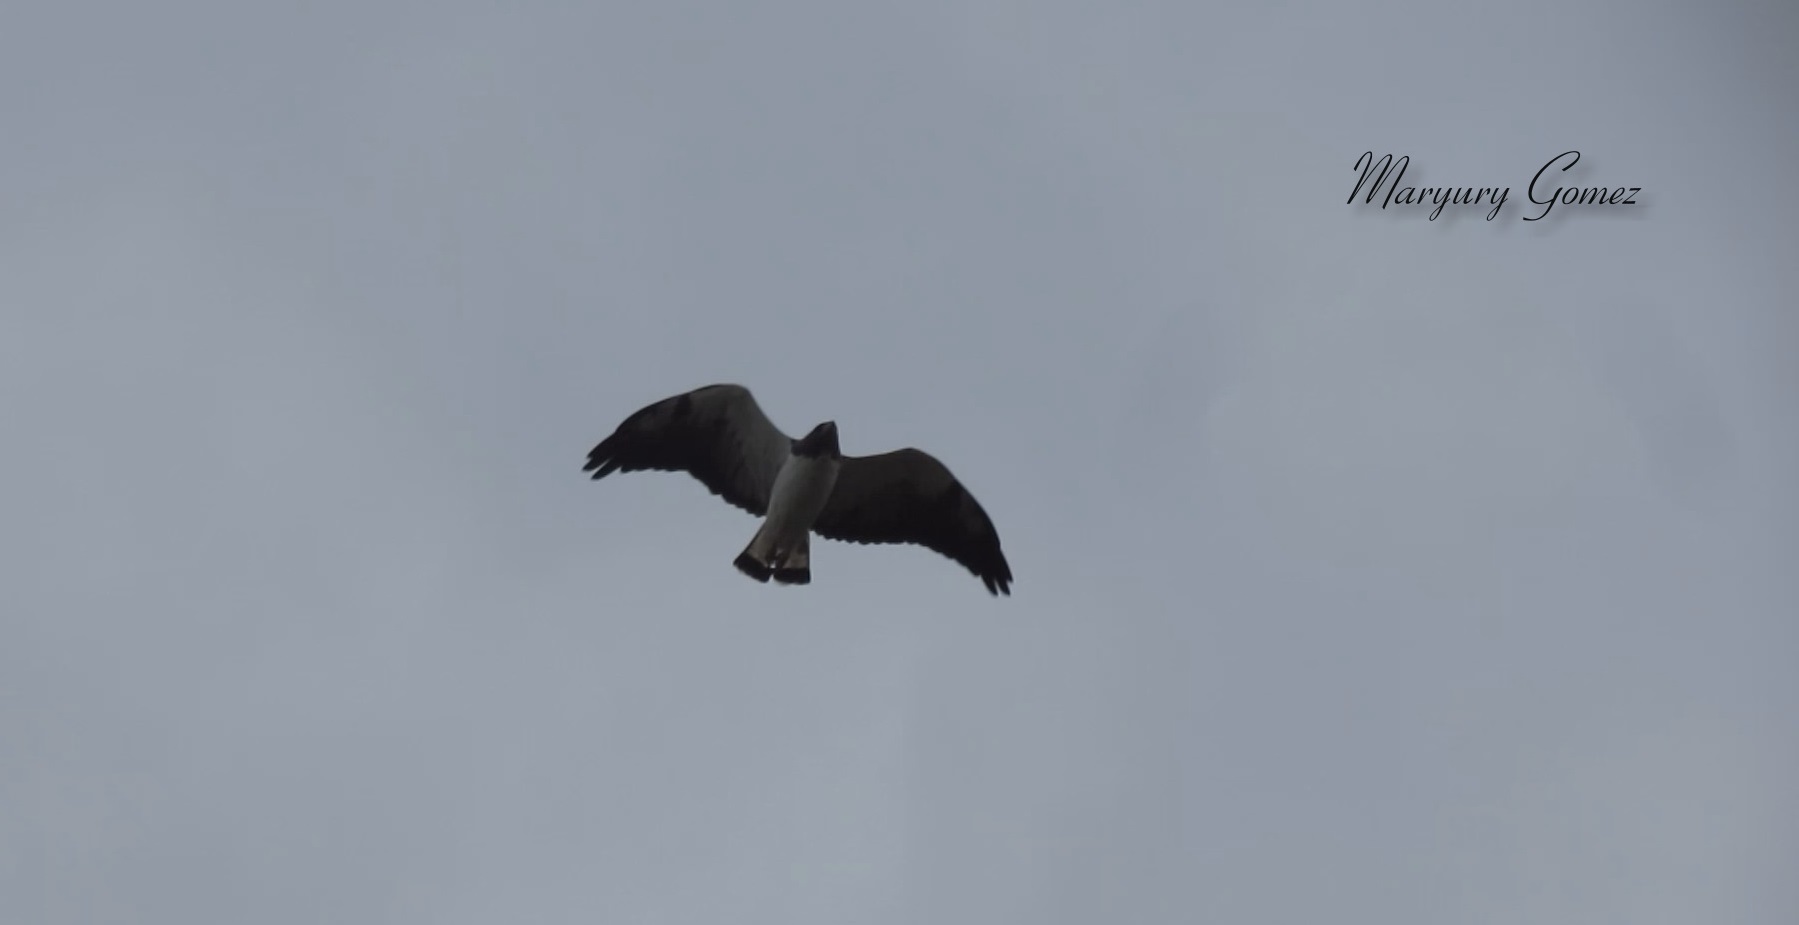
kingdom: Animalia
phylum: Chordata
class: Aves
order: Accipitriformes
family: Accipitridae
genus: Buteo
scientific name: Buteo albicaudatus
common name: White-tailed hawk
